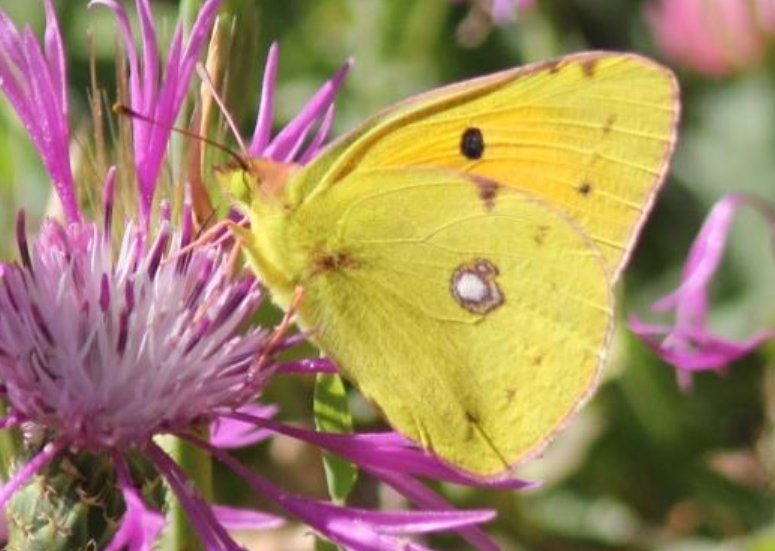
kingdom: Animalia
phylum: Arthropoda
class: Insecta
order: Lepidoptera
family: Pieridae
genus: Colias
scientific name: Colias croceus
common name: Clouded yellow
